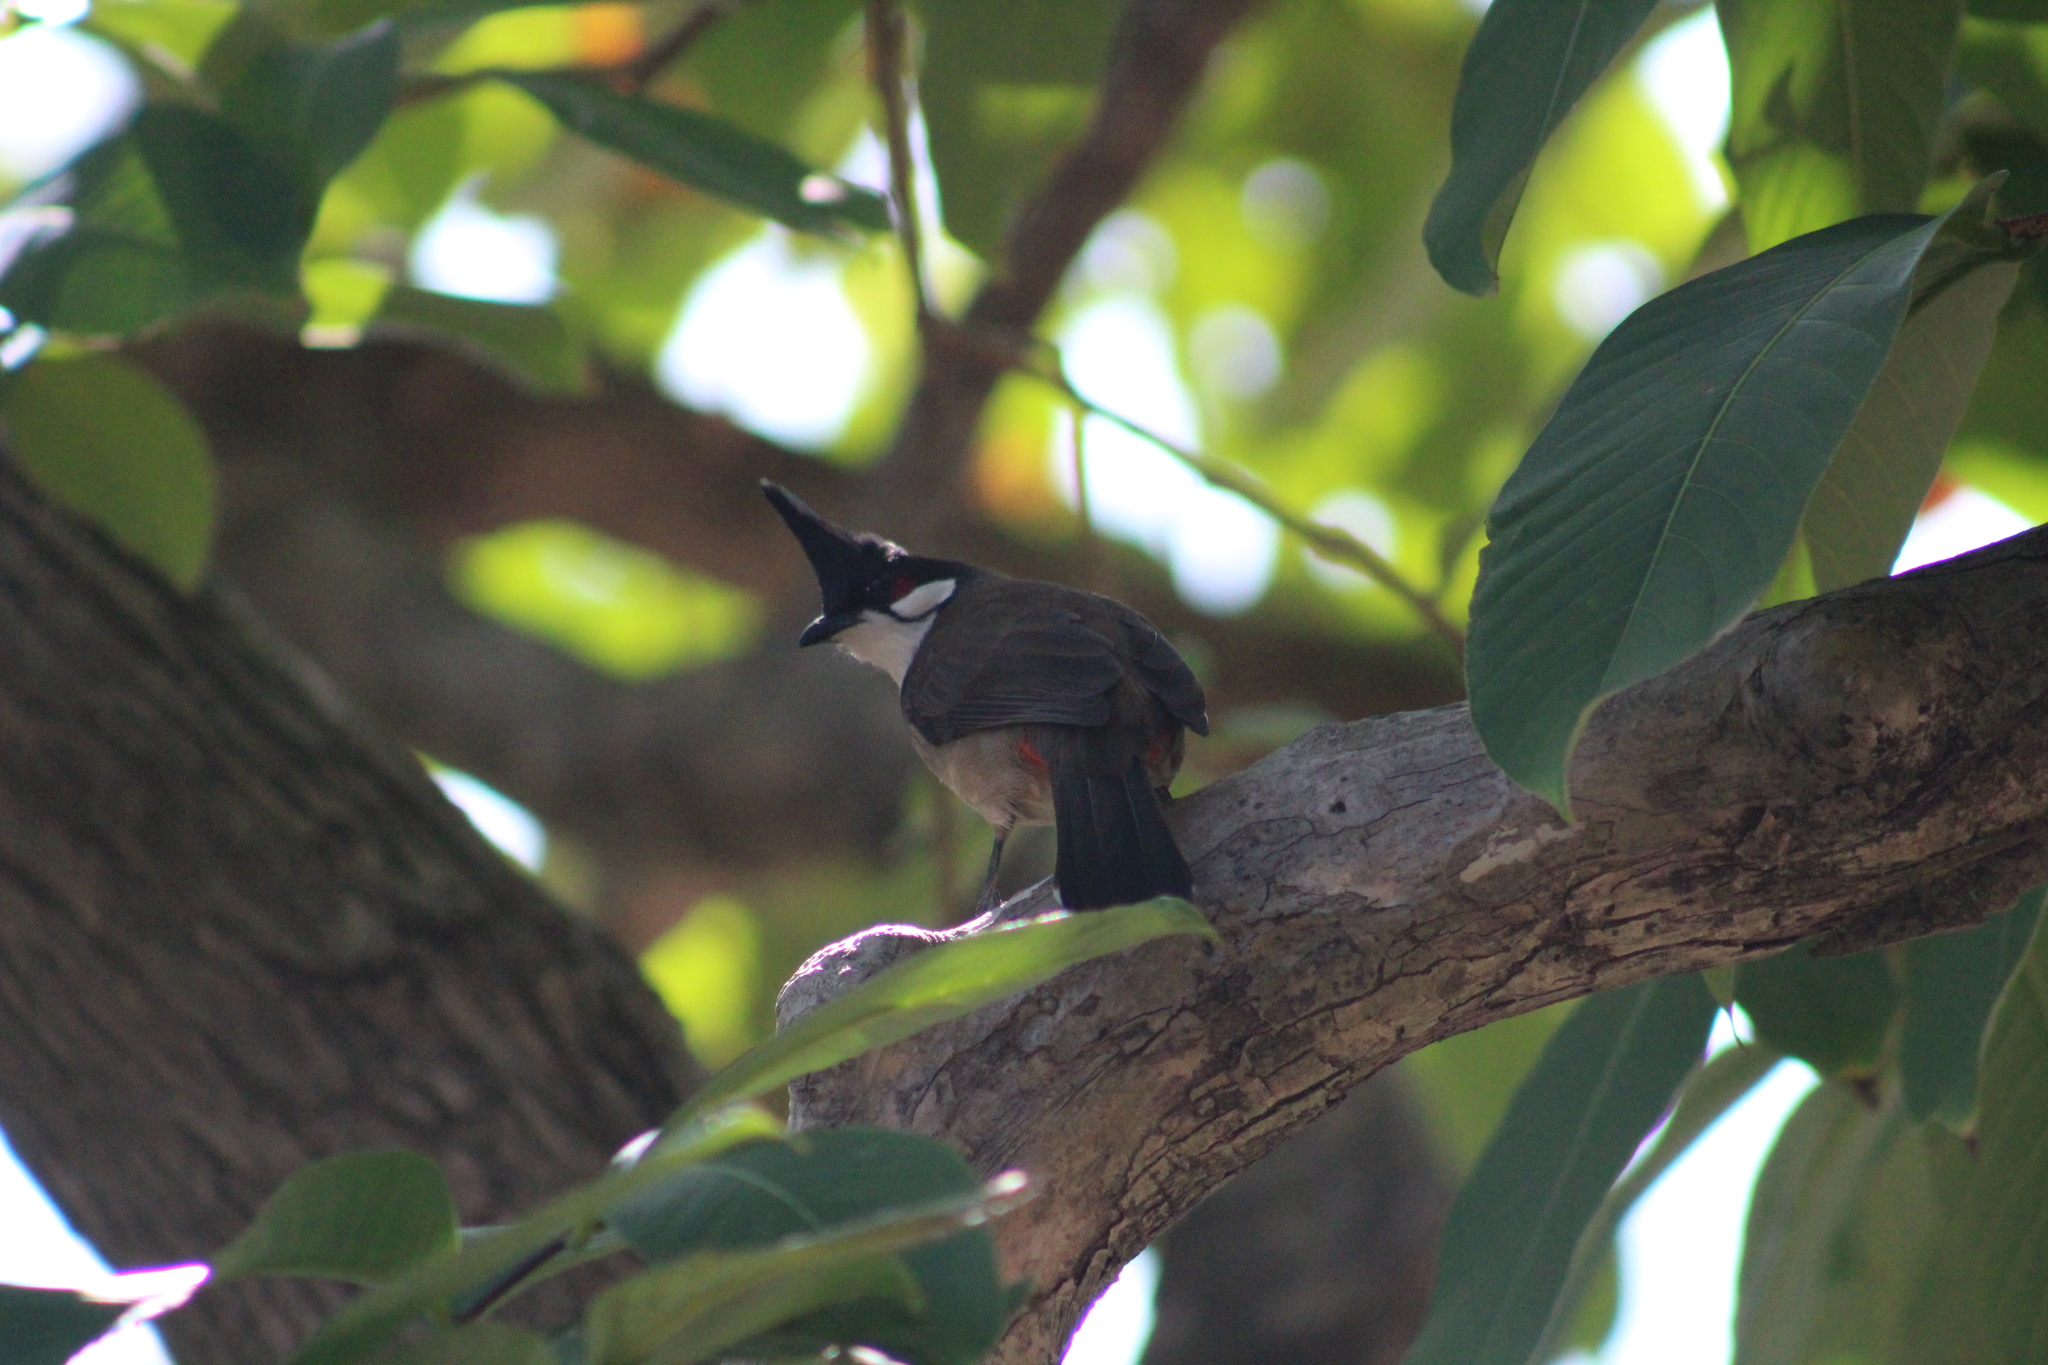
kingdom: Animalia
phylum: Chordata
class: Aves
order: Passeriformes
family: Pycnonotidae
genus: Pycnonotus
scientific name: Pycnonotus jocosus
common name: Red-whiskered bulbul
